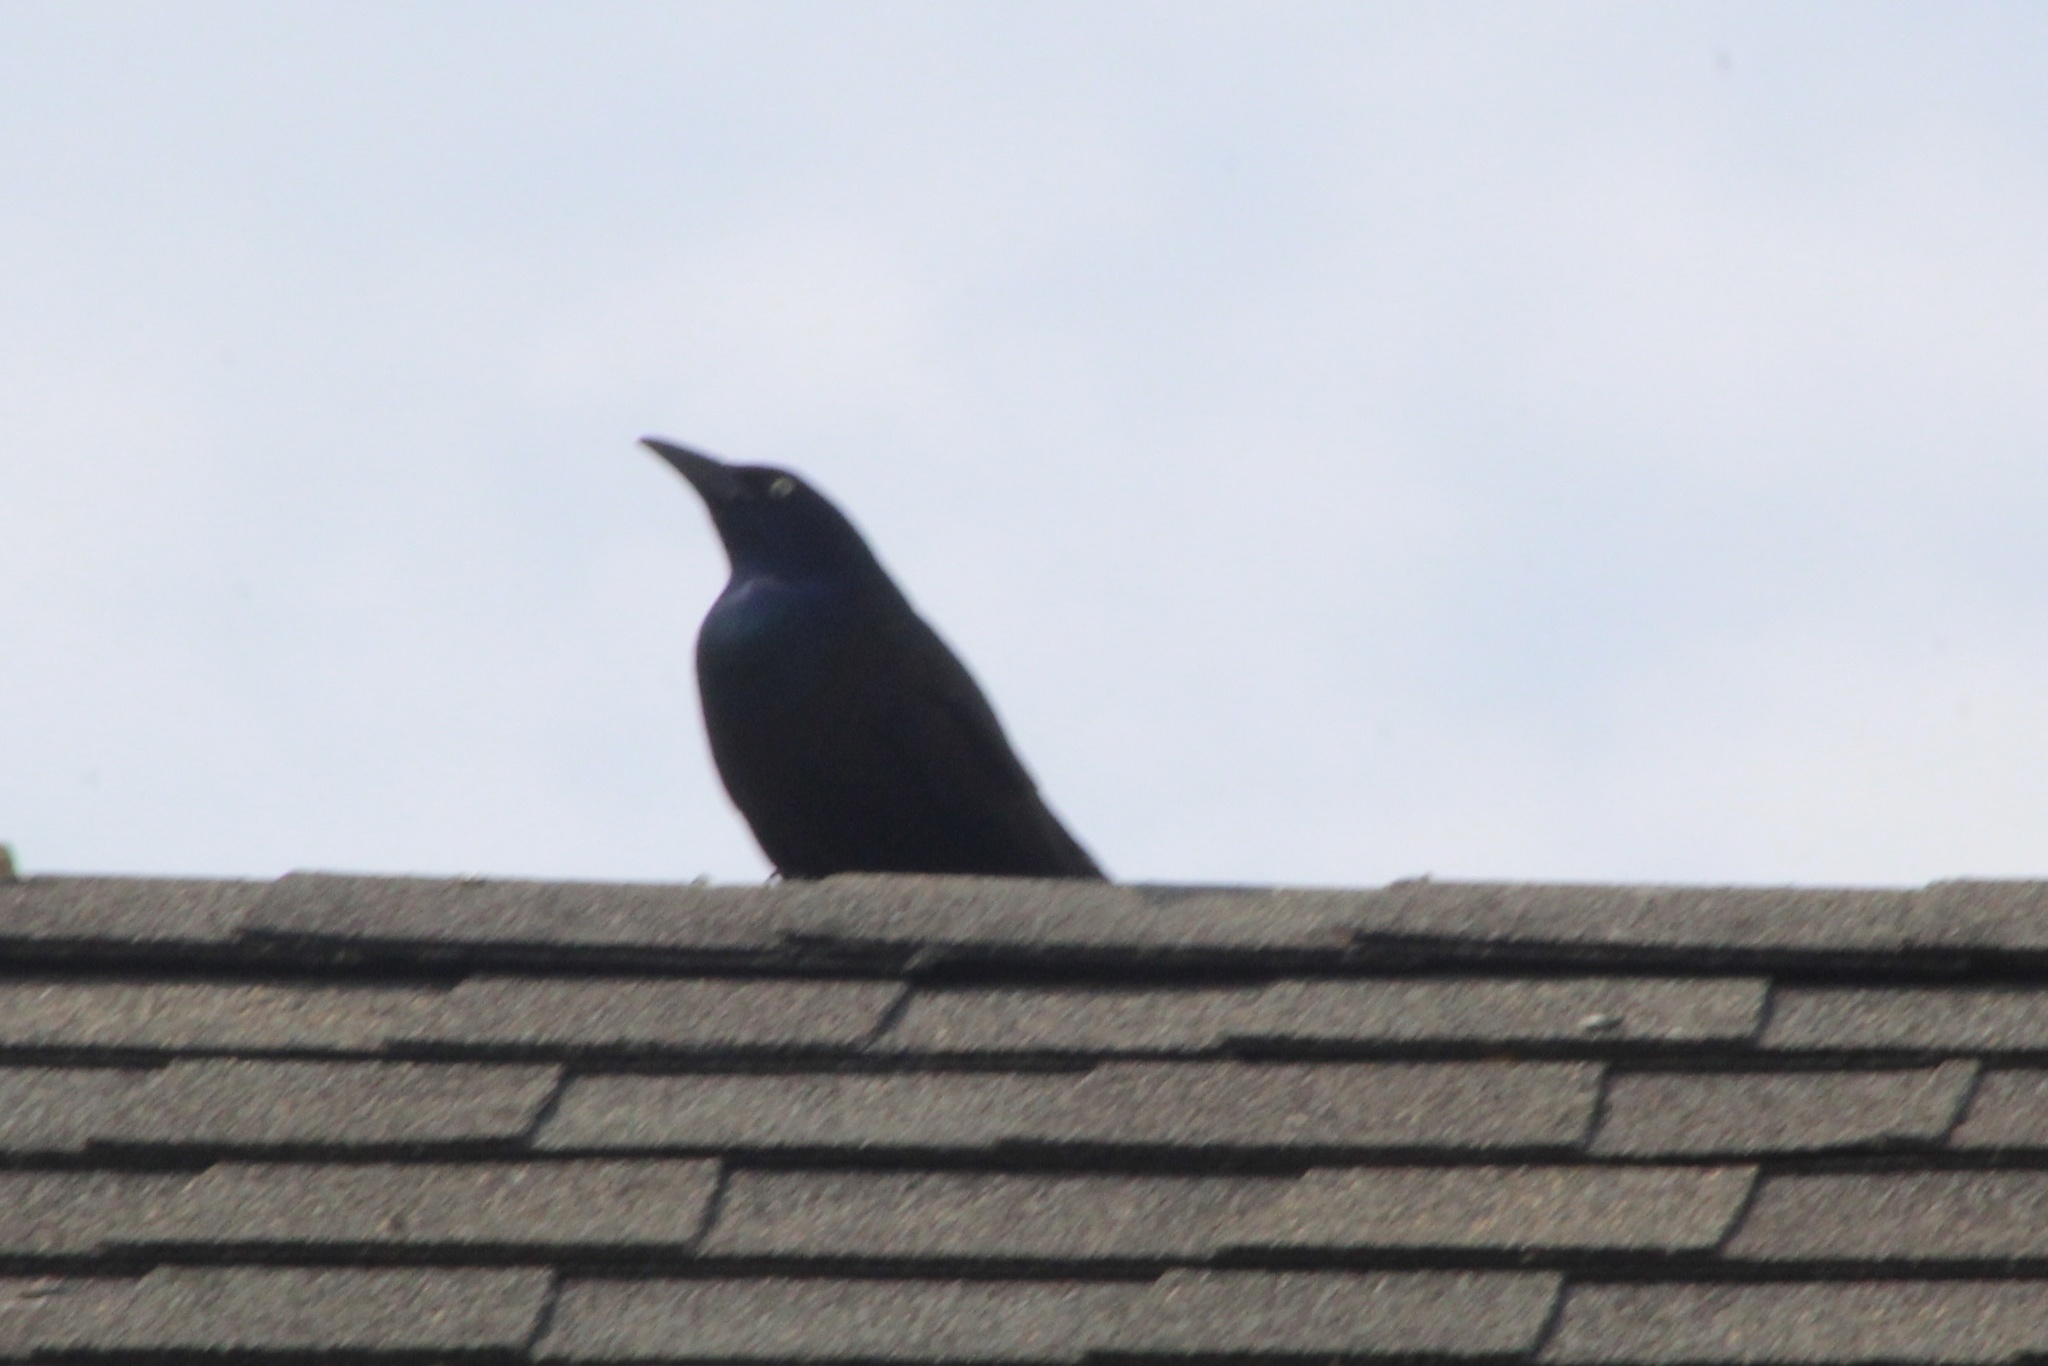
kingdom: Animalia
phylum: Chordata
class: Aves
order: Passeriformes
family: Icteridae
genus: Quiscalus
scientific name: Quiscalus quiscula
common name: Common grackle
